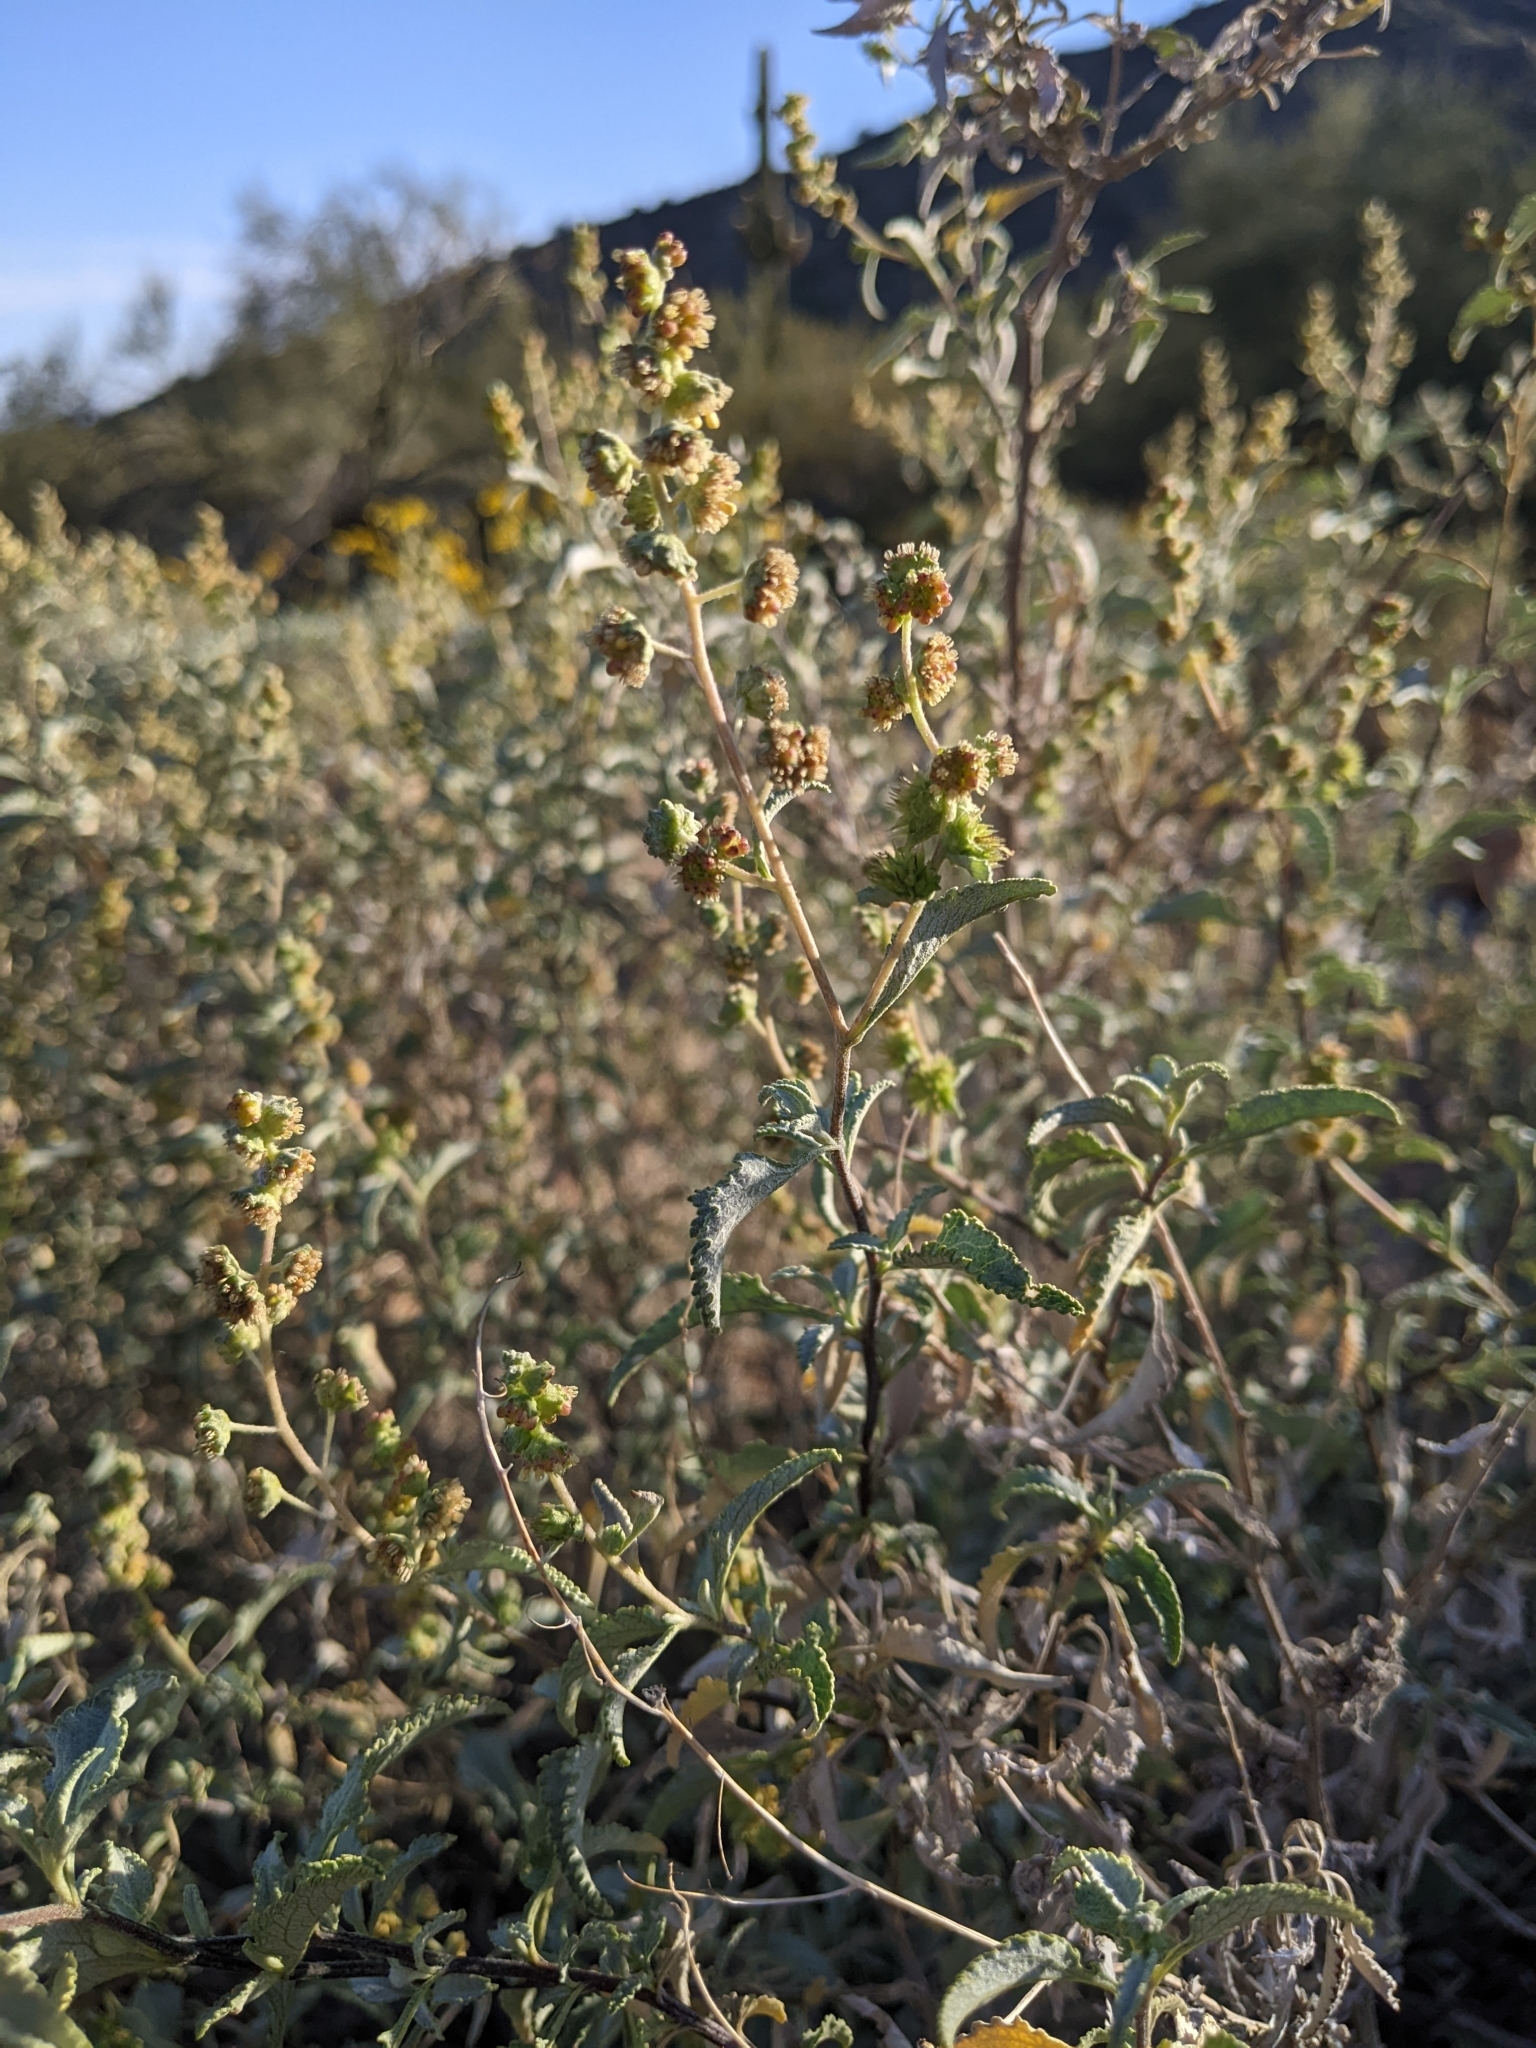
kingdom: Plantae
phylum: Tracheophyta
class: Magnoliopsida
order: Asterales
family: Asteraceae
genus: Ambrosia
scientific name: Ambrosia deltoidea
